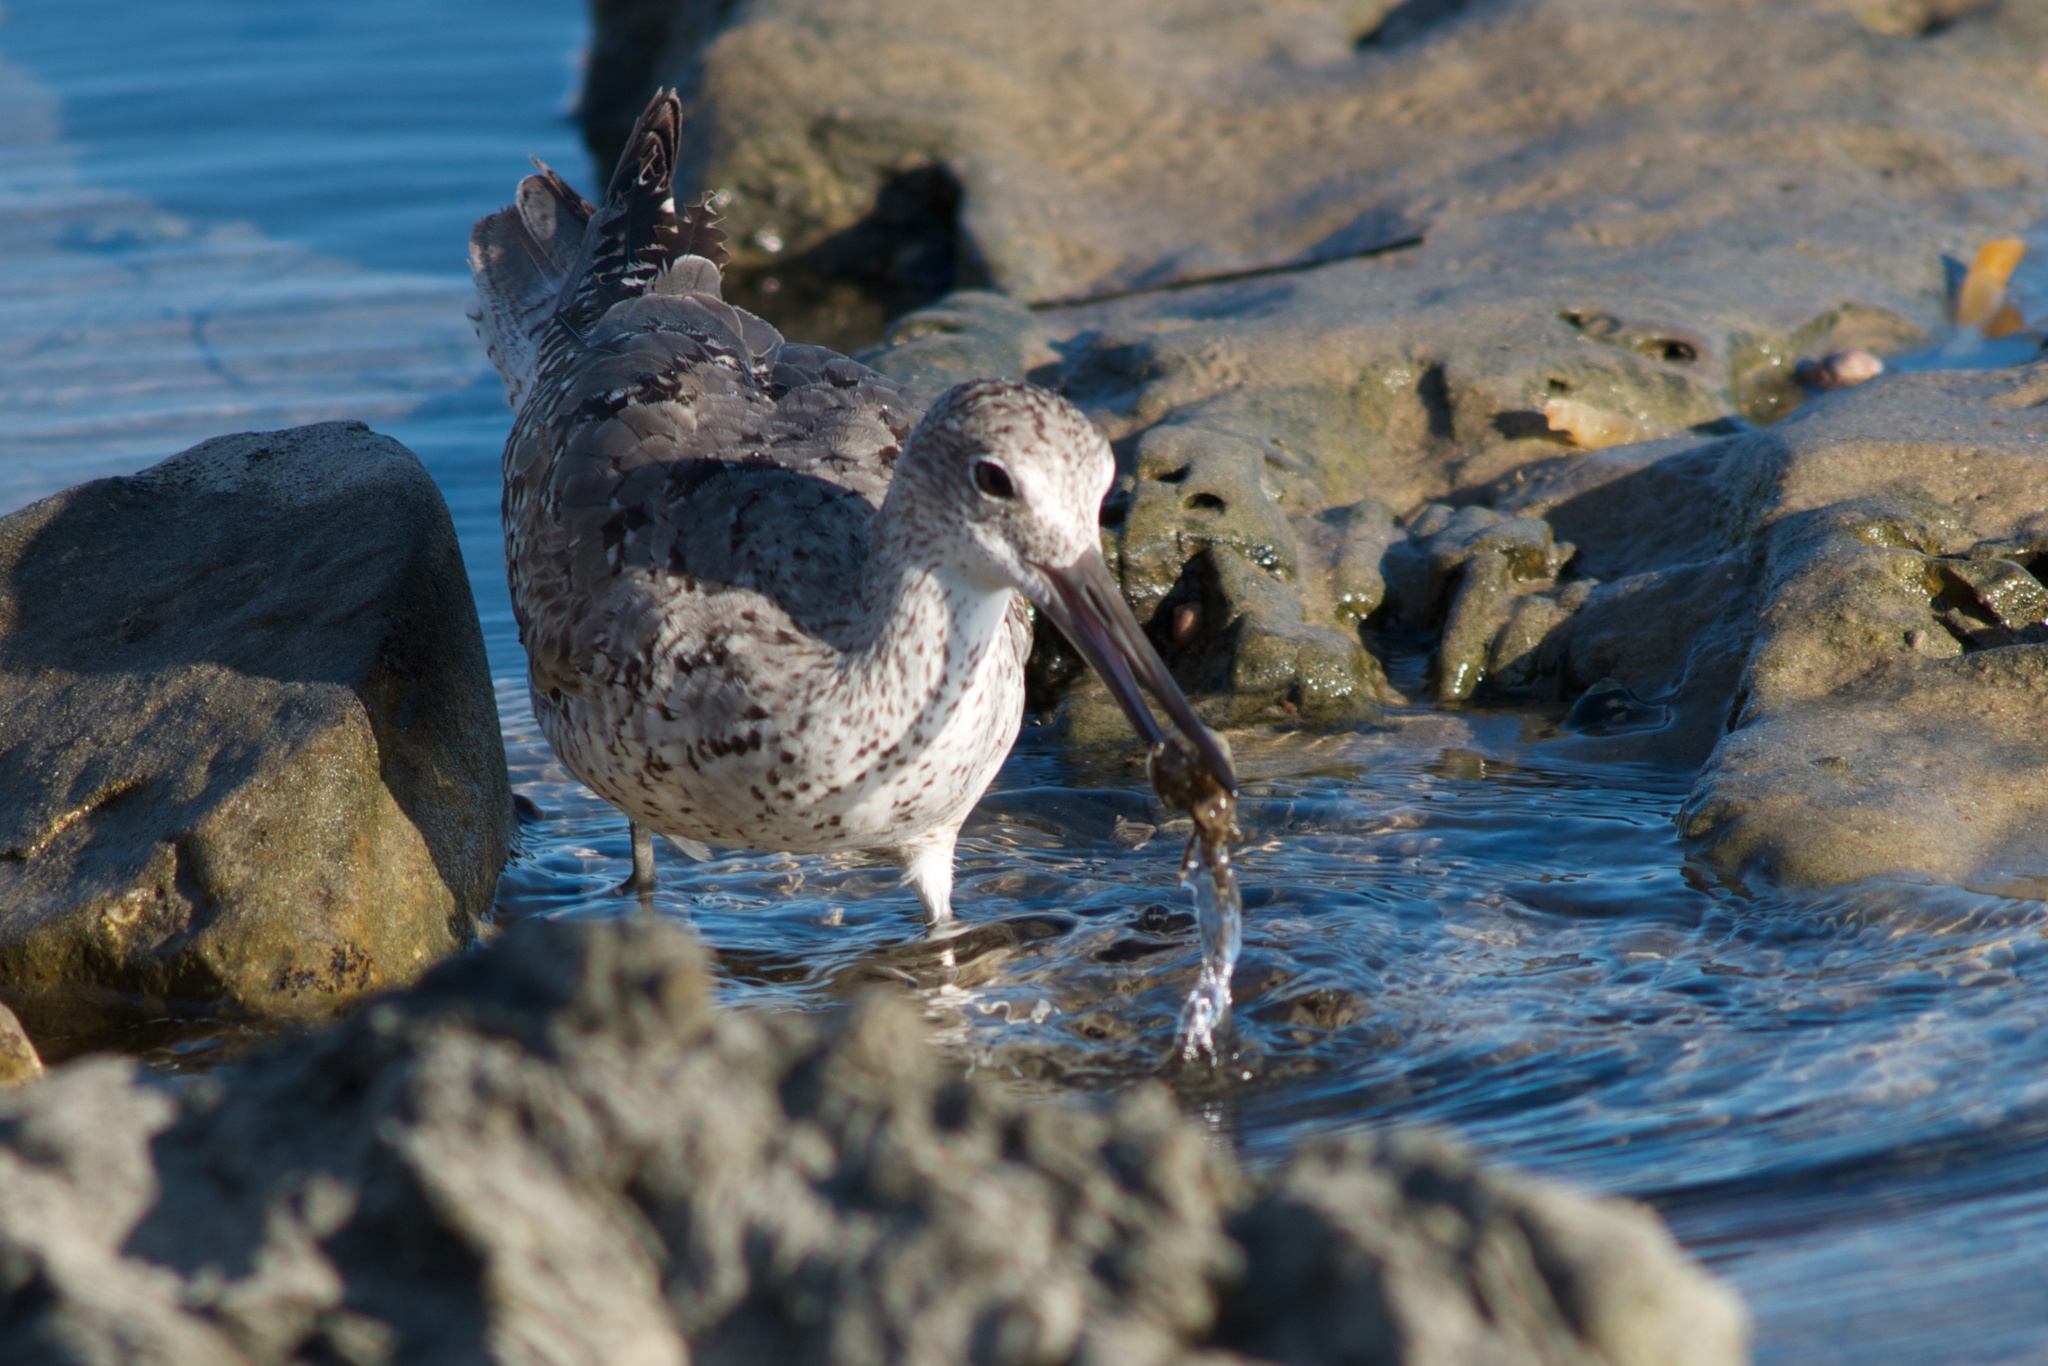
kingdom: Animalia
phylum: Chordata
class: Aves
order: Charadriiformes
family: Scolopacidae
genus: Tringa
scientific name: Tringa semipalmata
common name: Willet
